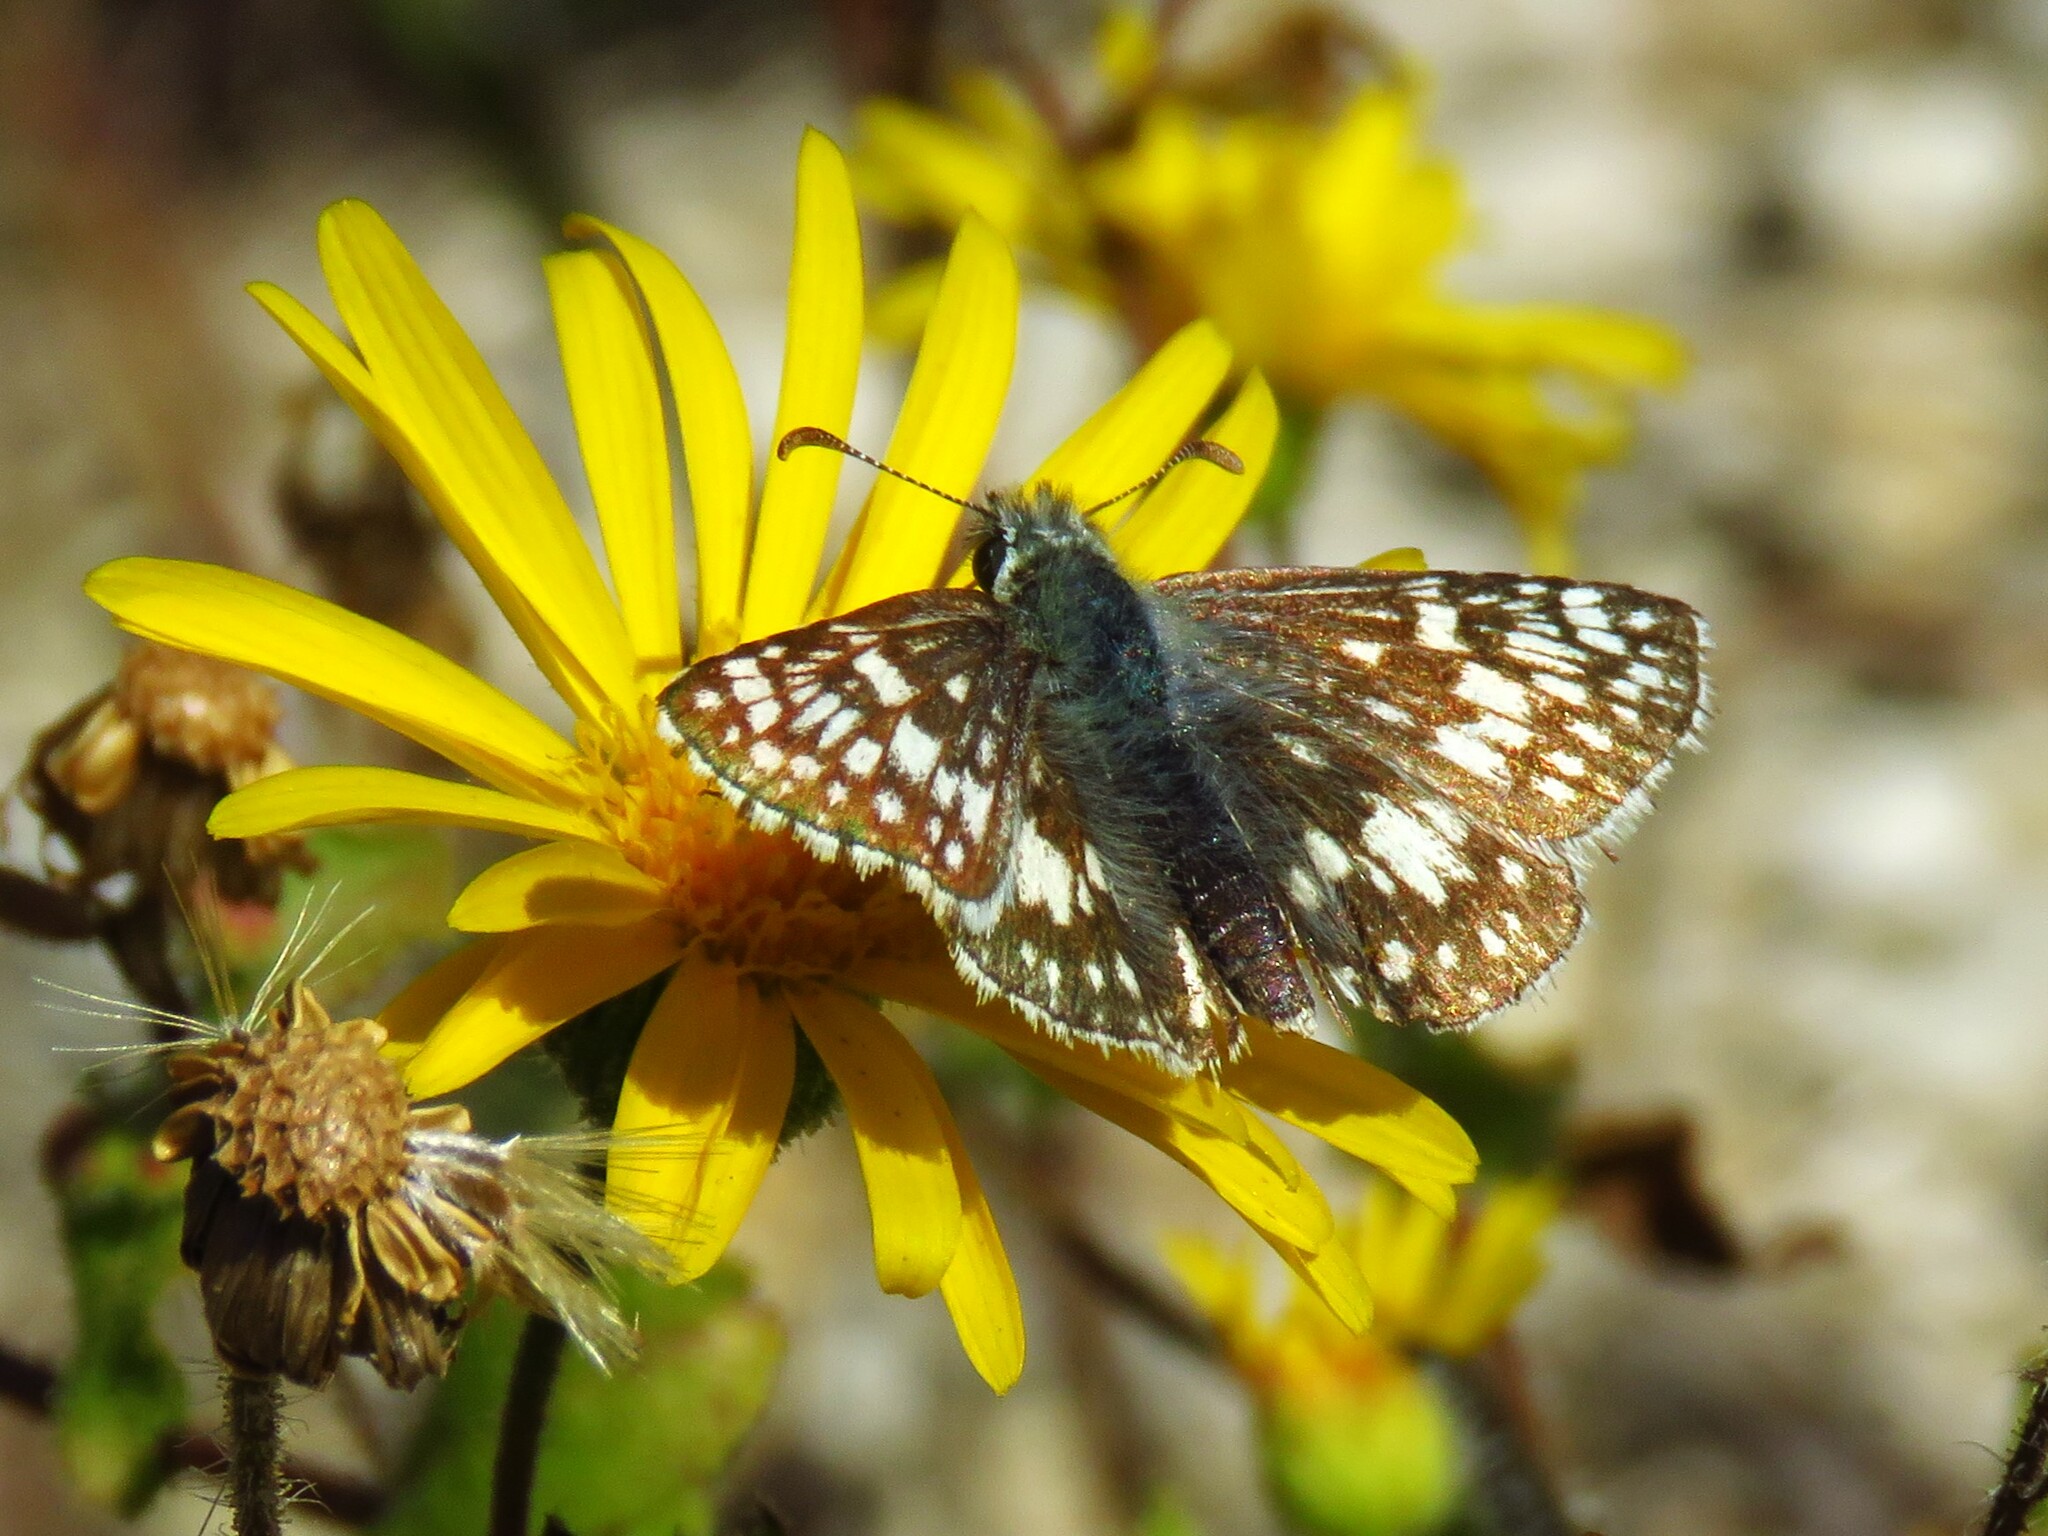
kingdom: Animalia
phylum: Arthropoda
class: Insecta
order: Lepidoptera
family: Hesperiidae
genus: Burnsius
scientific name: Burnsius
